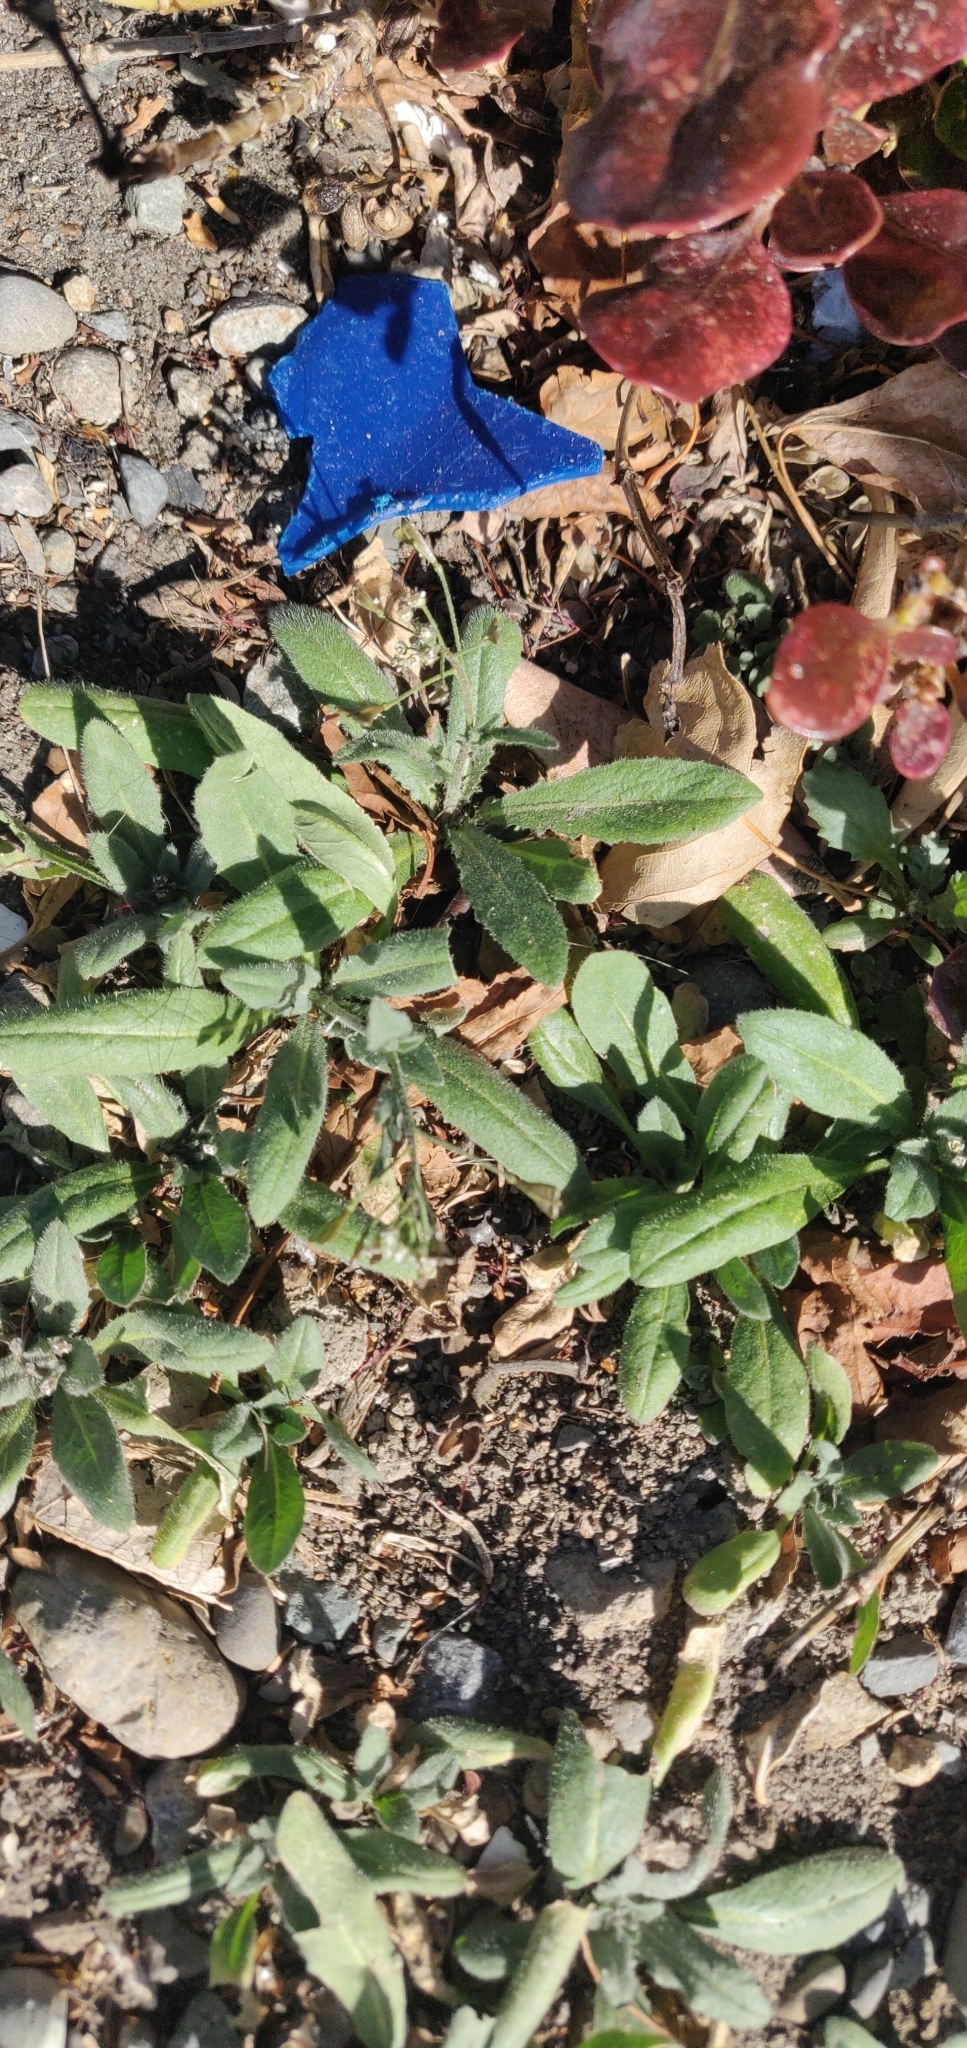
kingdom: Plantae
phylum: Tracheophyta
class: Magnoliopsida
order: Brassicales
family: Brassicaceae
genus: Capsella
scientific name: Capsella bursa-pastoris
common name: Shepherd's purse
